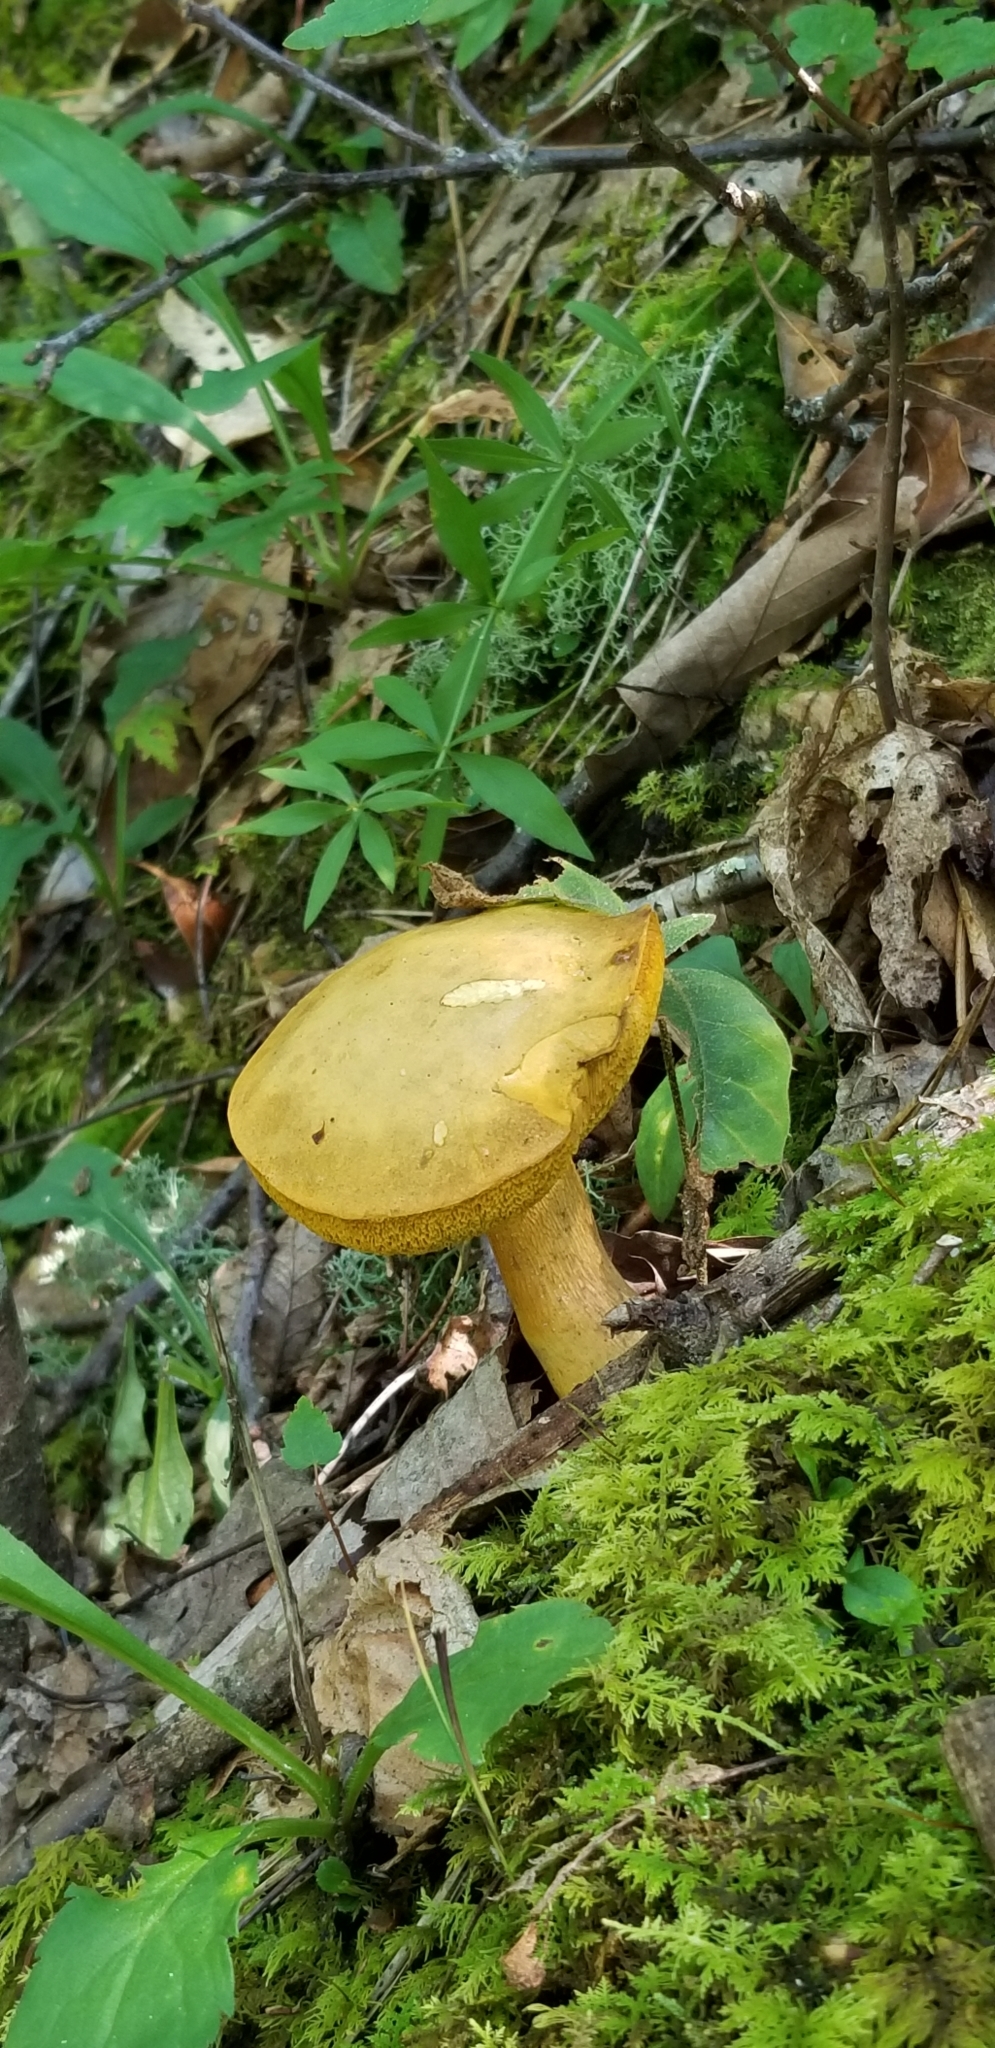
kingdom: Fungi
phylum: Basidiomycota
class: Agaricomycetes
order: Boletales
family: Boletaceae
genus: Retiboletus
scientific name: Retiboletus ornatipes
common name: Ornate-stalked bolete
